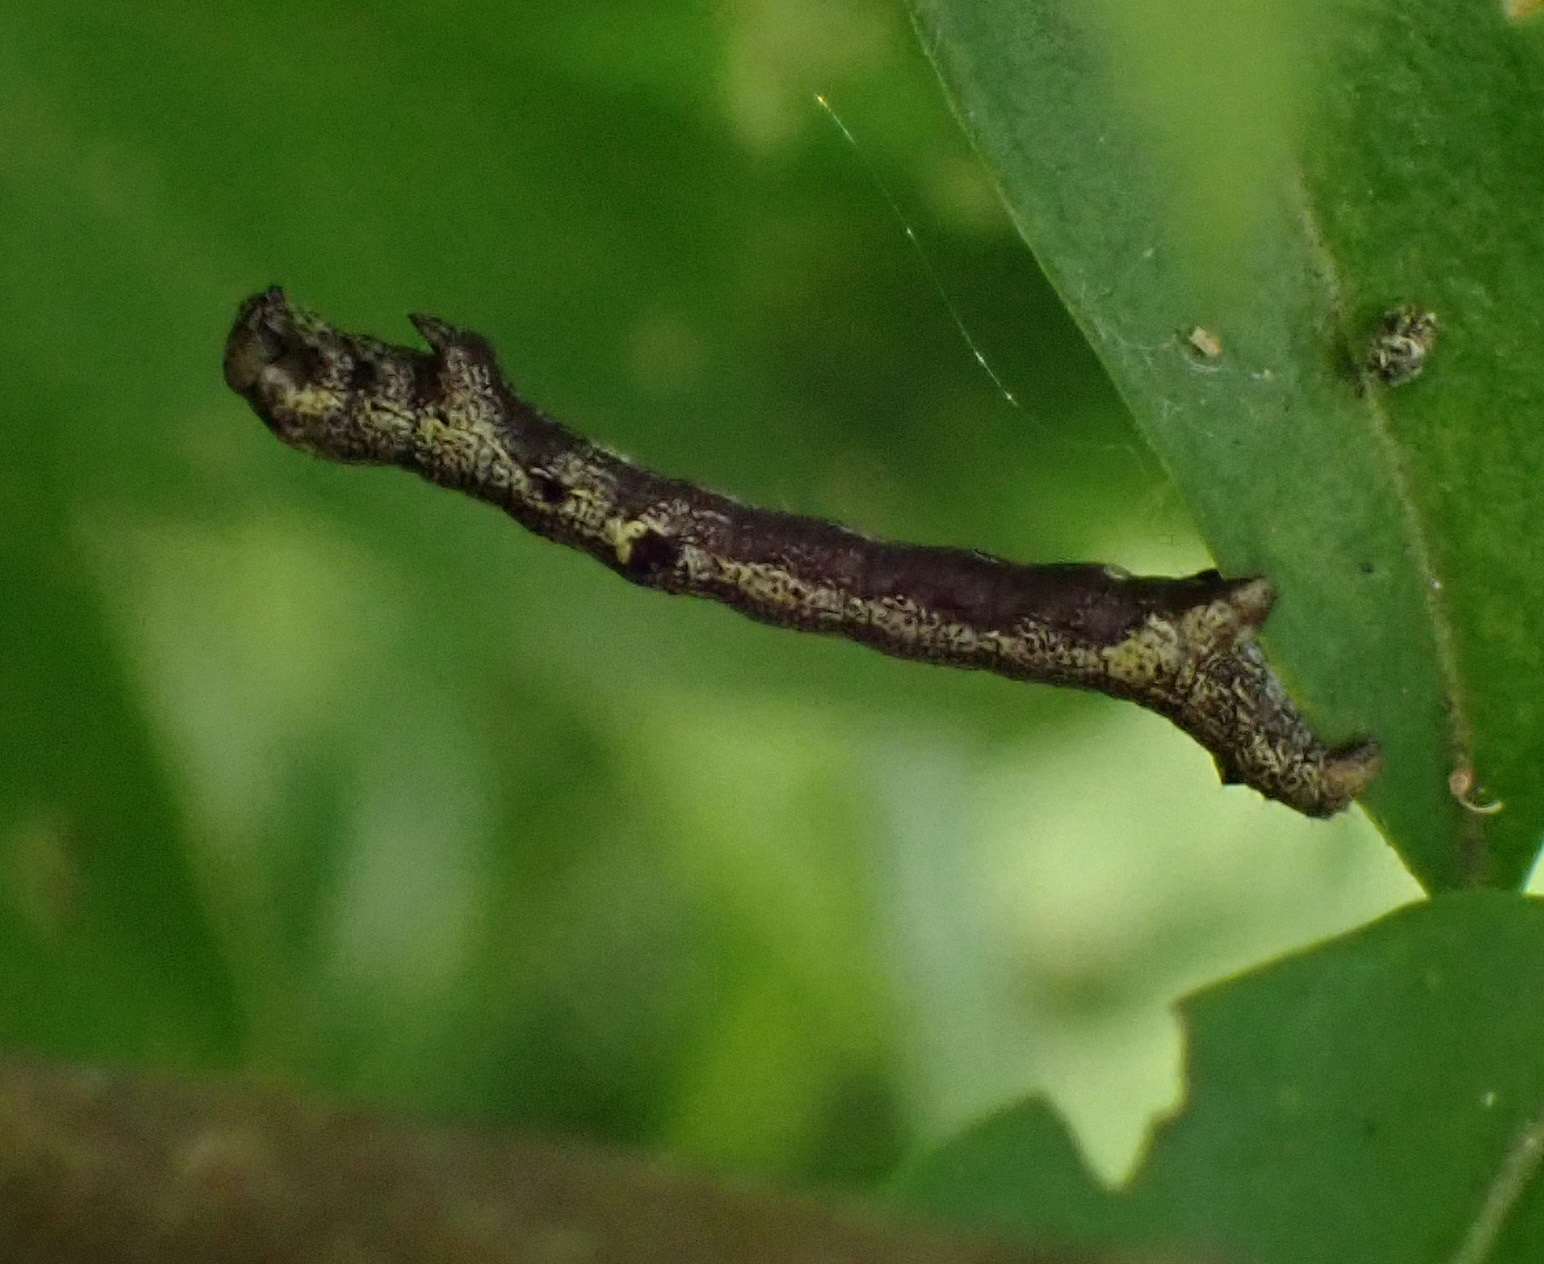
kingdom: Animalia
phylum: Arthropoda
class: Insecta
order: Lepidoptera
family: Geometridae
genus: Colotois
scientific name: Colotois pennaria
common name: Feathered thorn
